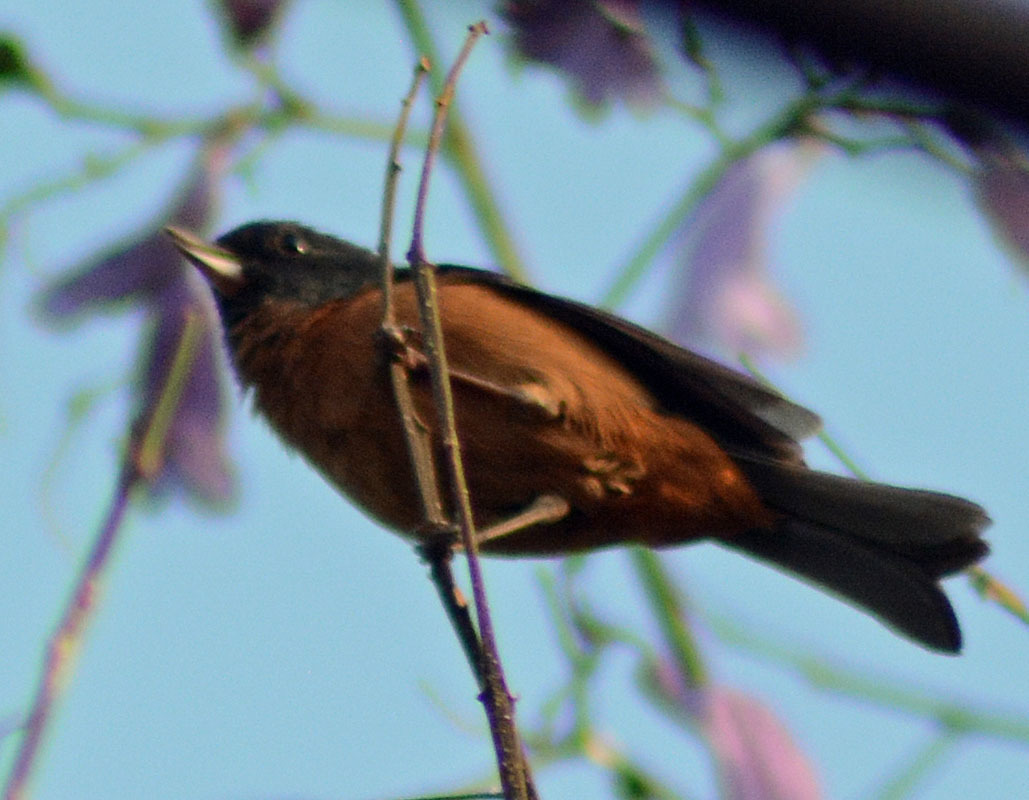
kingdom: Animalia
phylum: Chordata
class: Aves
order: Passeriformes
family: Thraupidae
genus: Diglossa
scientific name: Diglossa baritula
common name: Cinnamon-bellied flowerpiercer
